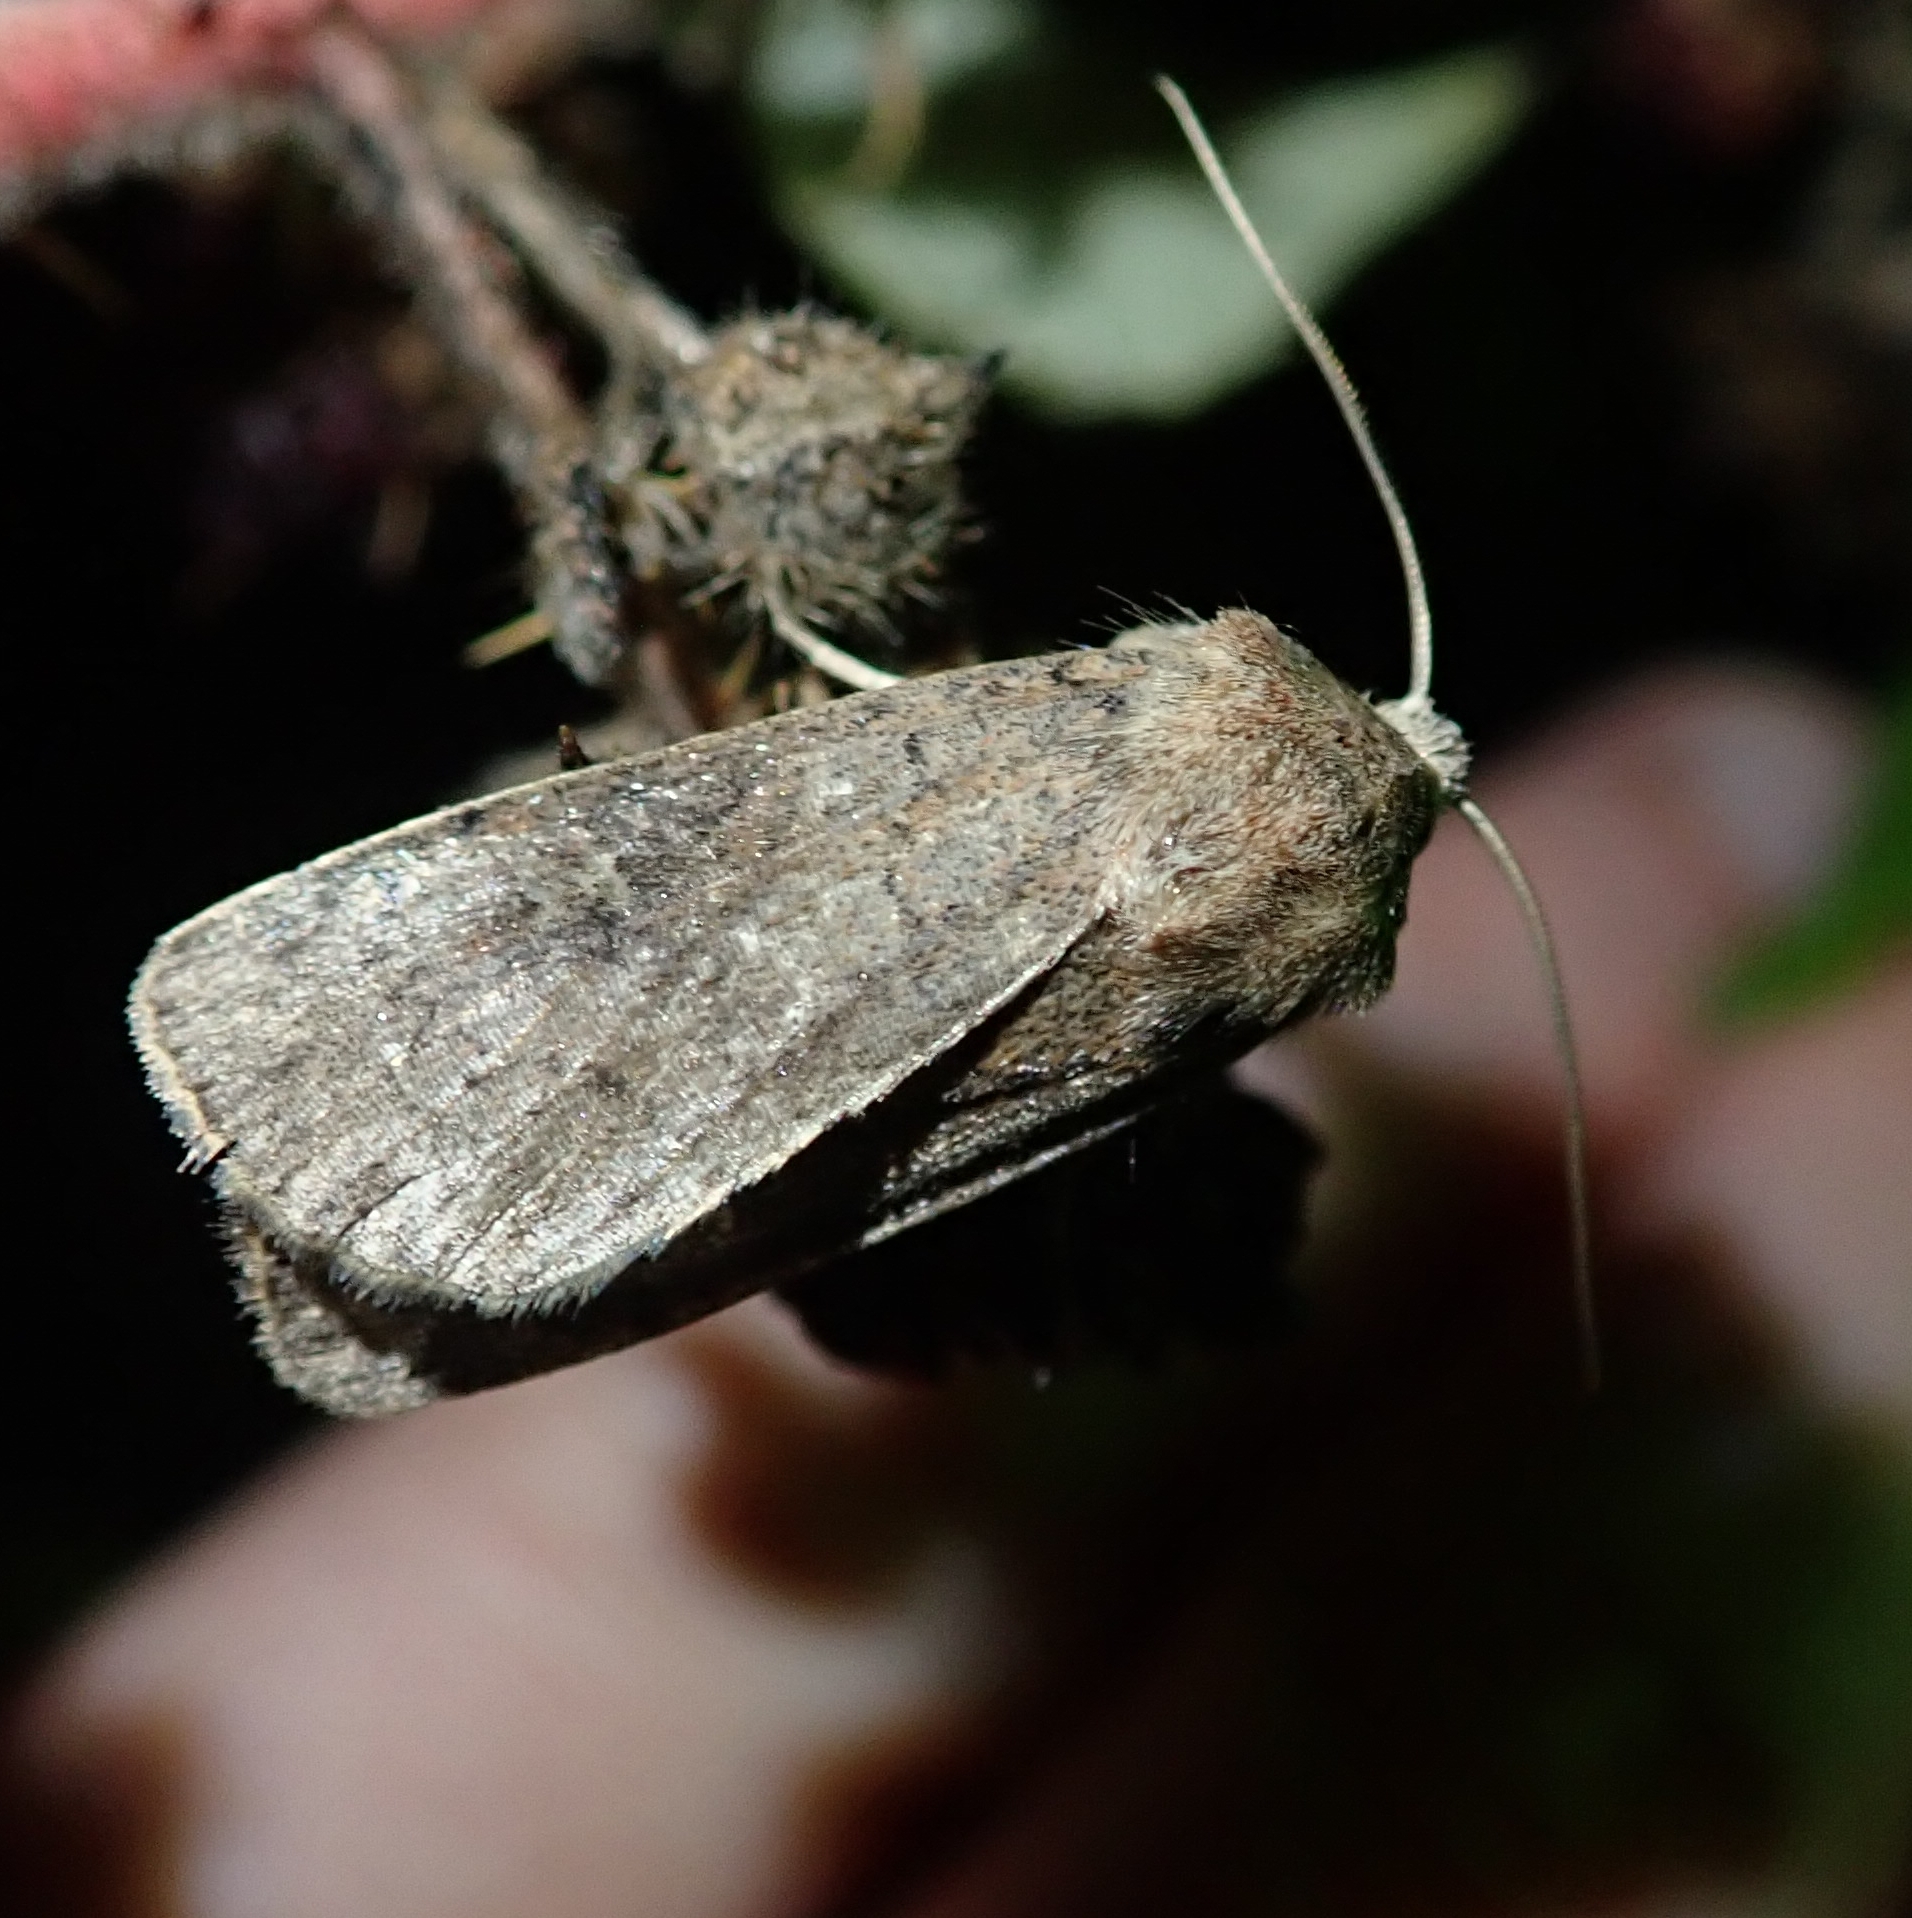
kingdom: Animalia
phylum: Arthropoda
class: Insecta
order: Lepidoptera
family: Noctuidae
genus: Xestia
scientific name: Xestia xanthographa
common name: Square-spot rustic
